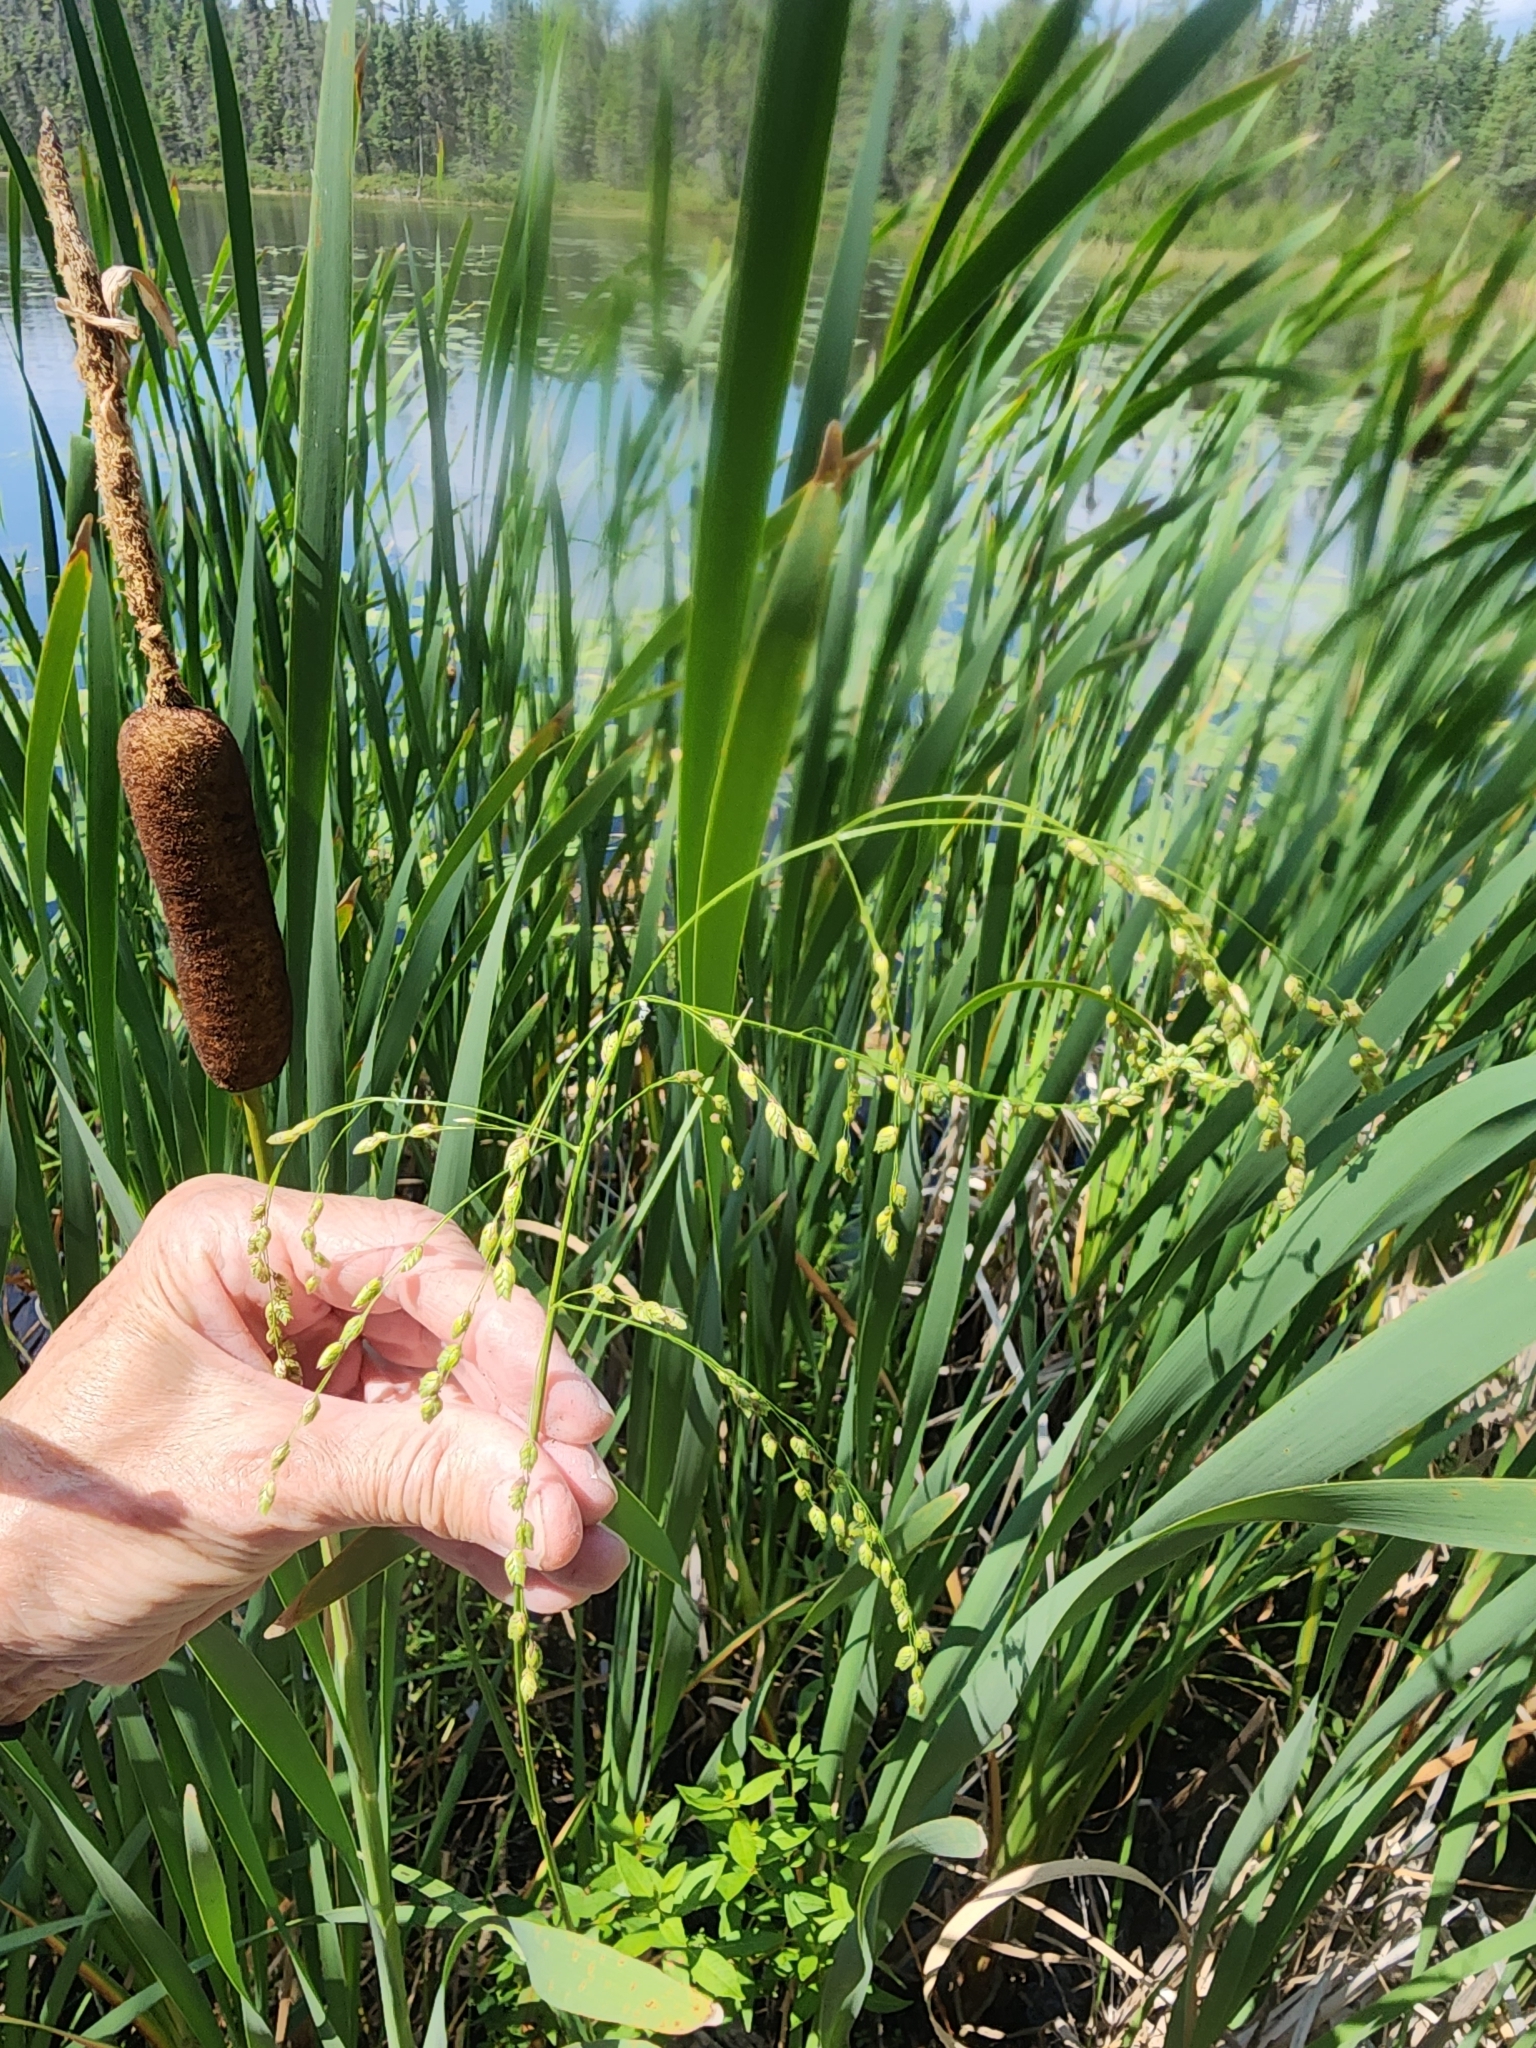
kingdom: Plantae
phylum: Tracheophyta
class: Liliopsida
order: Poales
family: Poaceae
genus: Glyceria
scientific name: Glyceria canadensis
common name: Canada mannagrass
